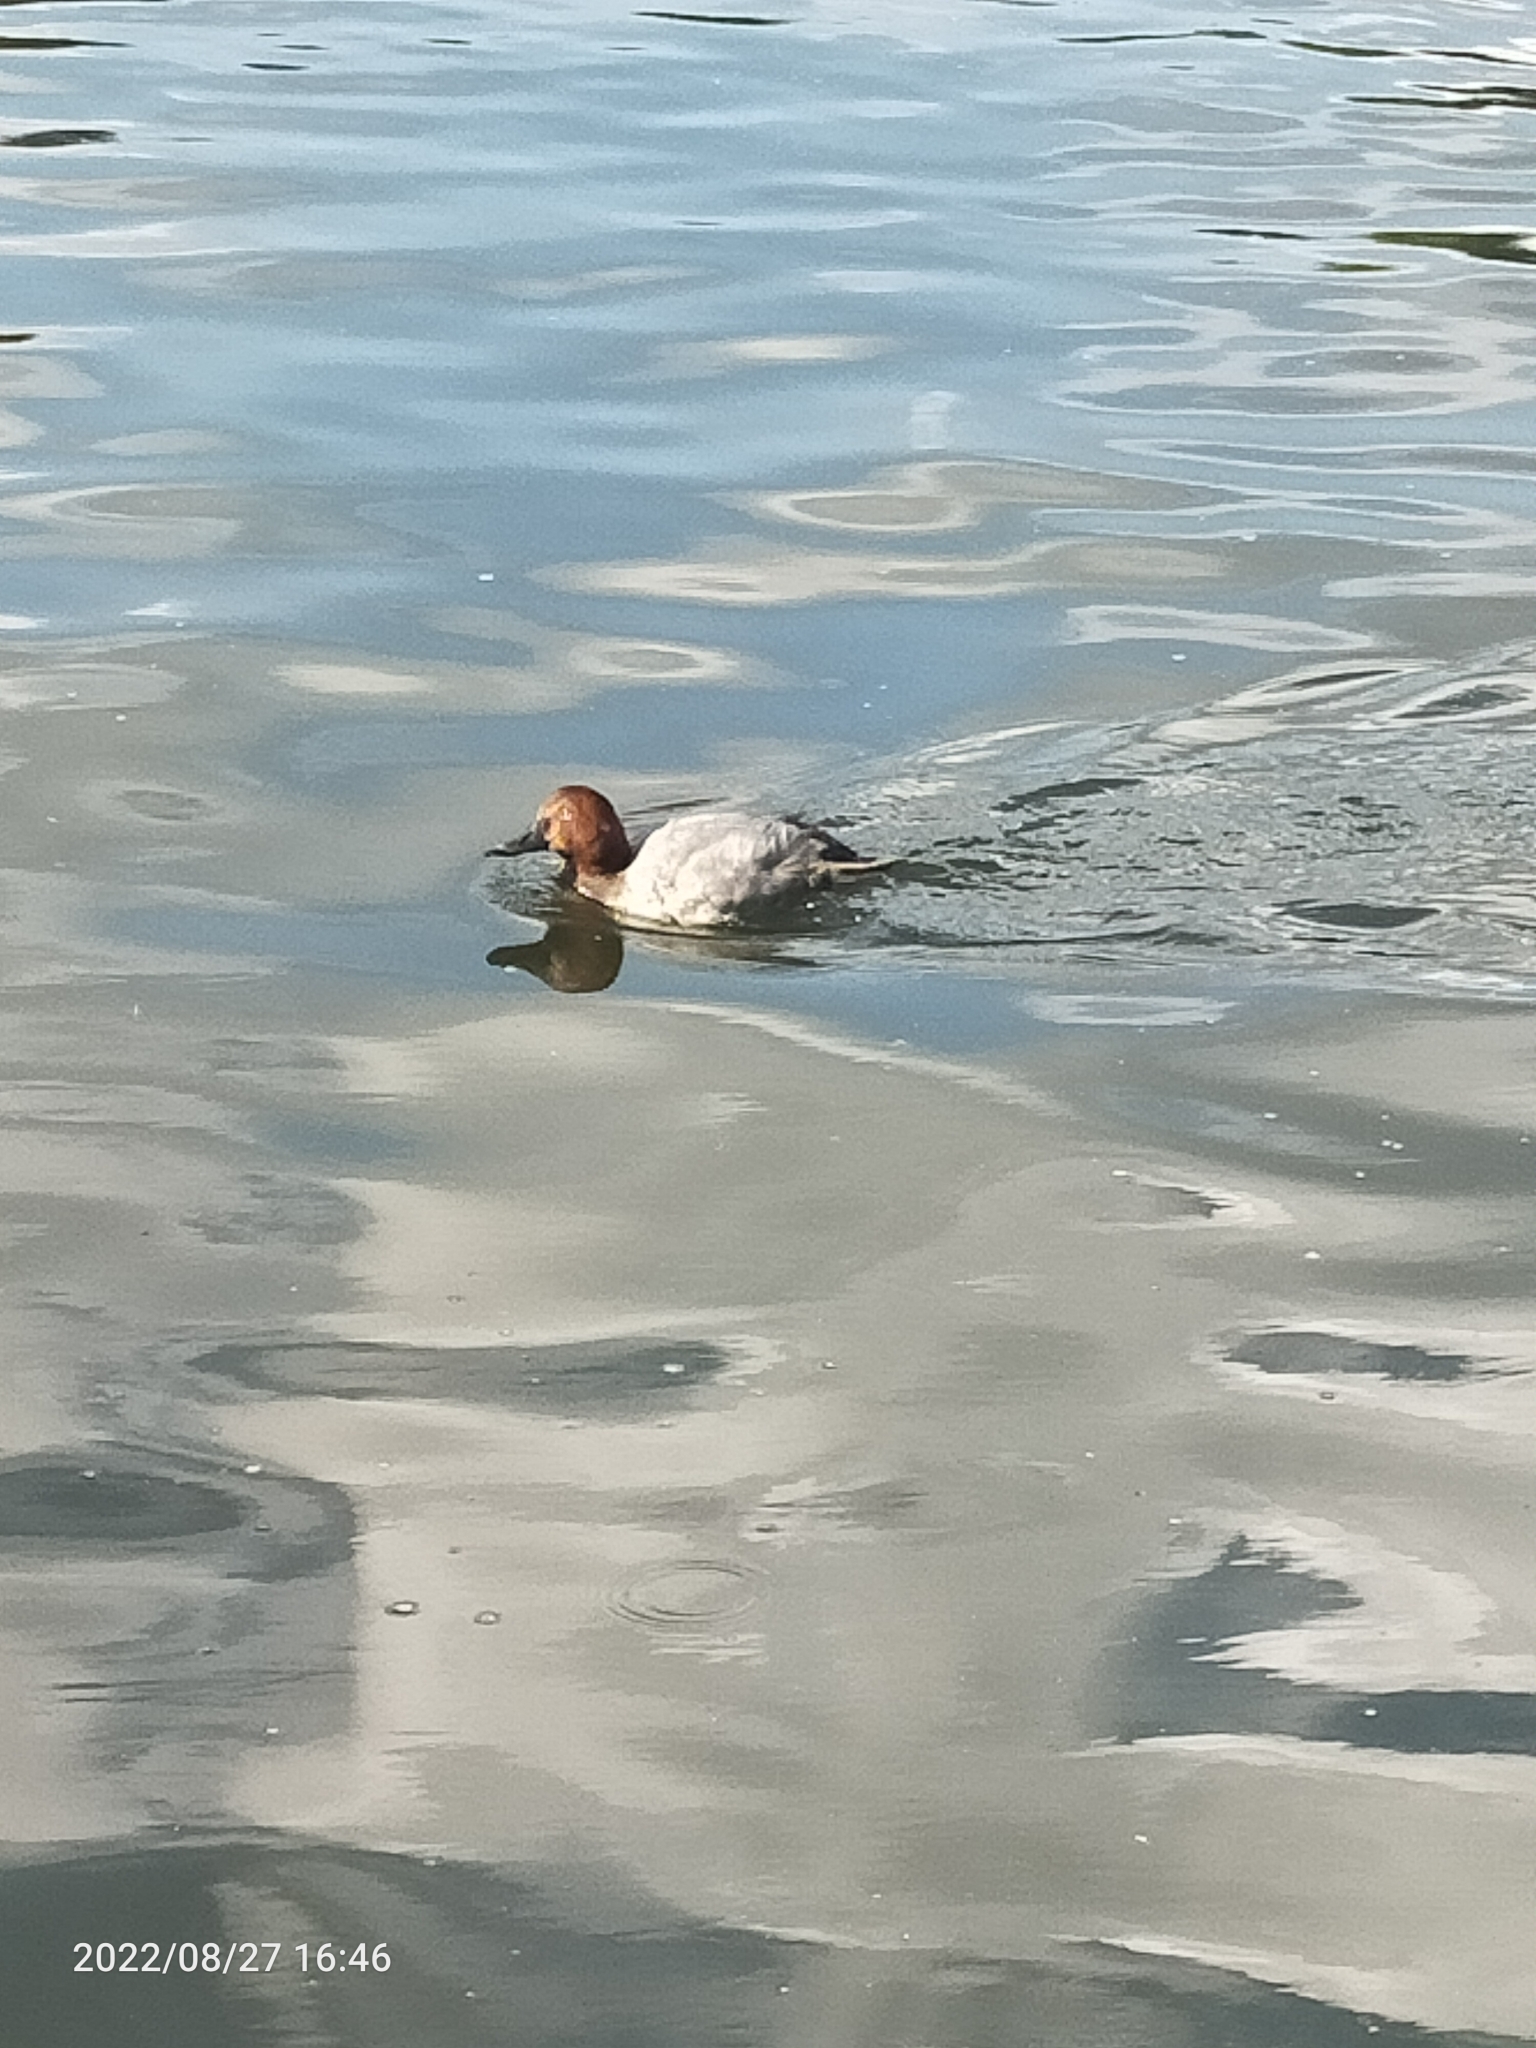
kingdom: Animalia
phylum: Chordata
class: Aves
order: Anseriformes
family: Anatidae
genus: Aythya
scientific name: Aythya ferina
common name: Common pochard
